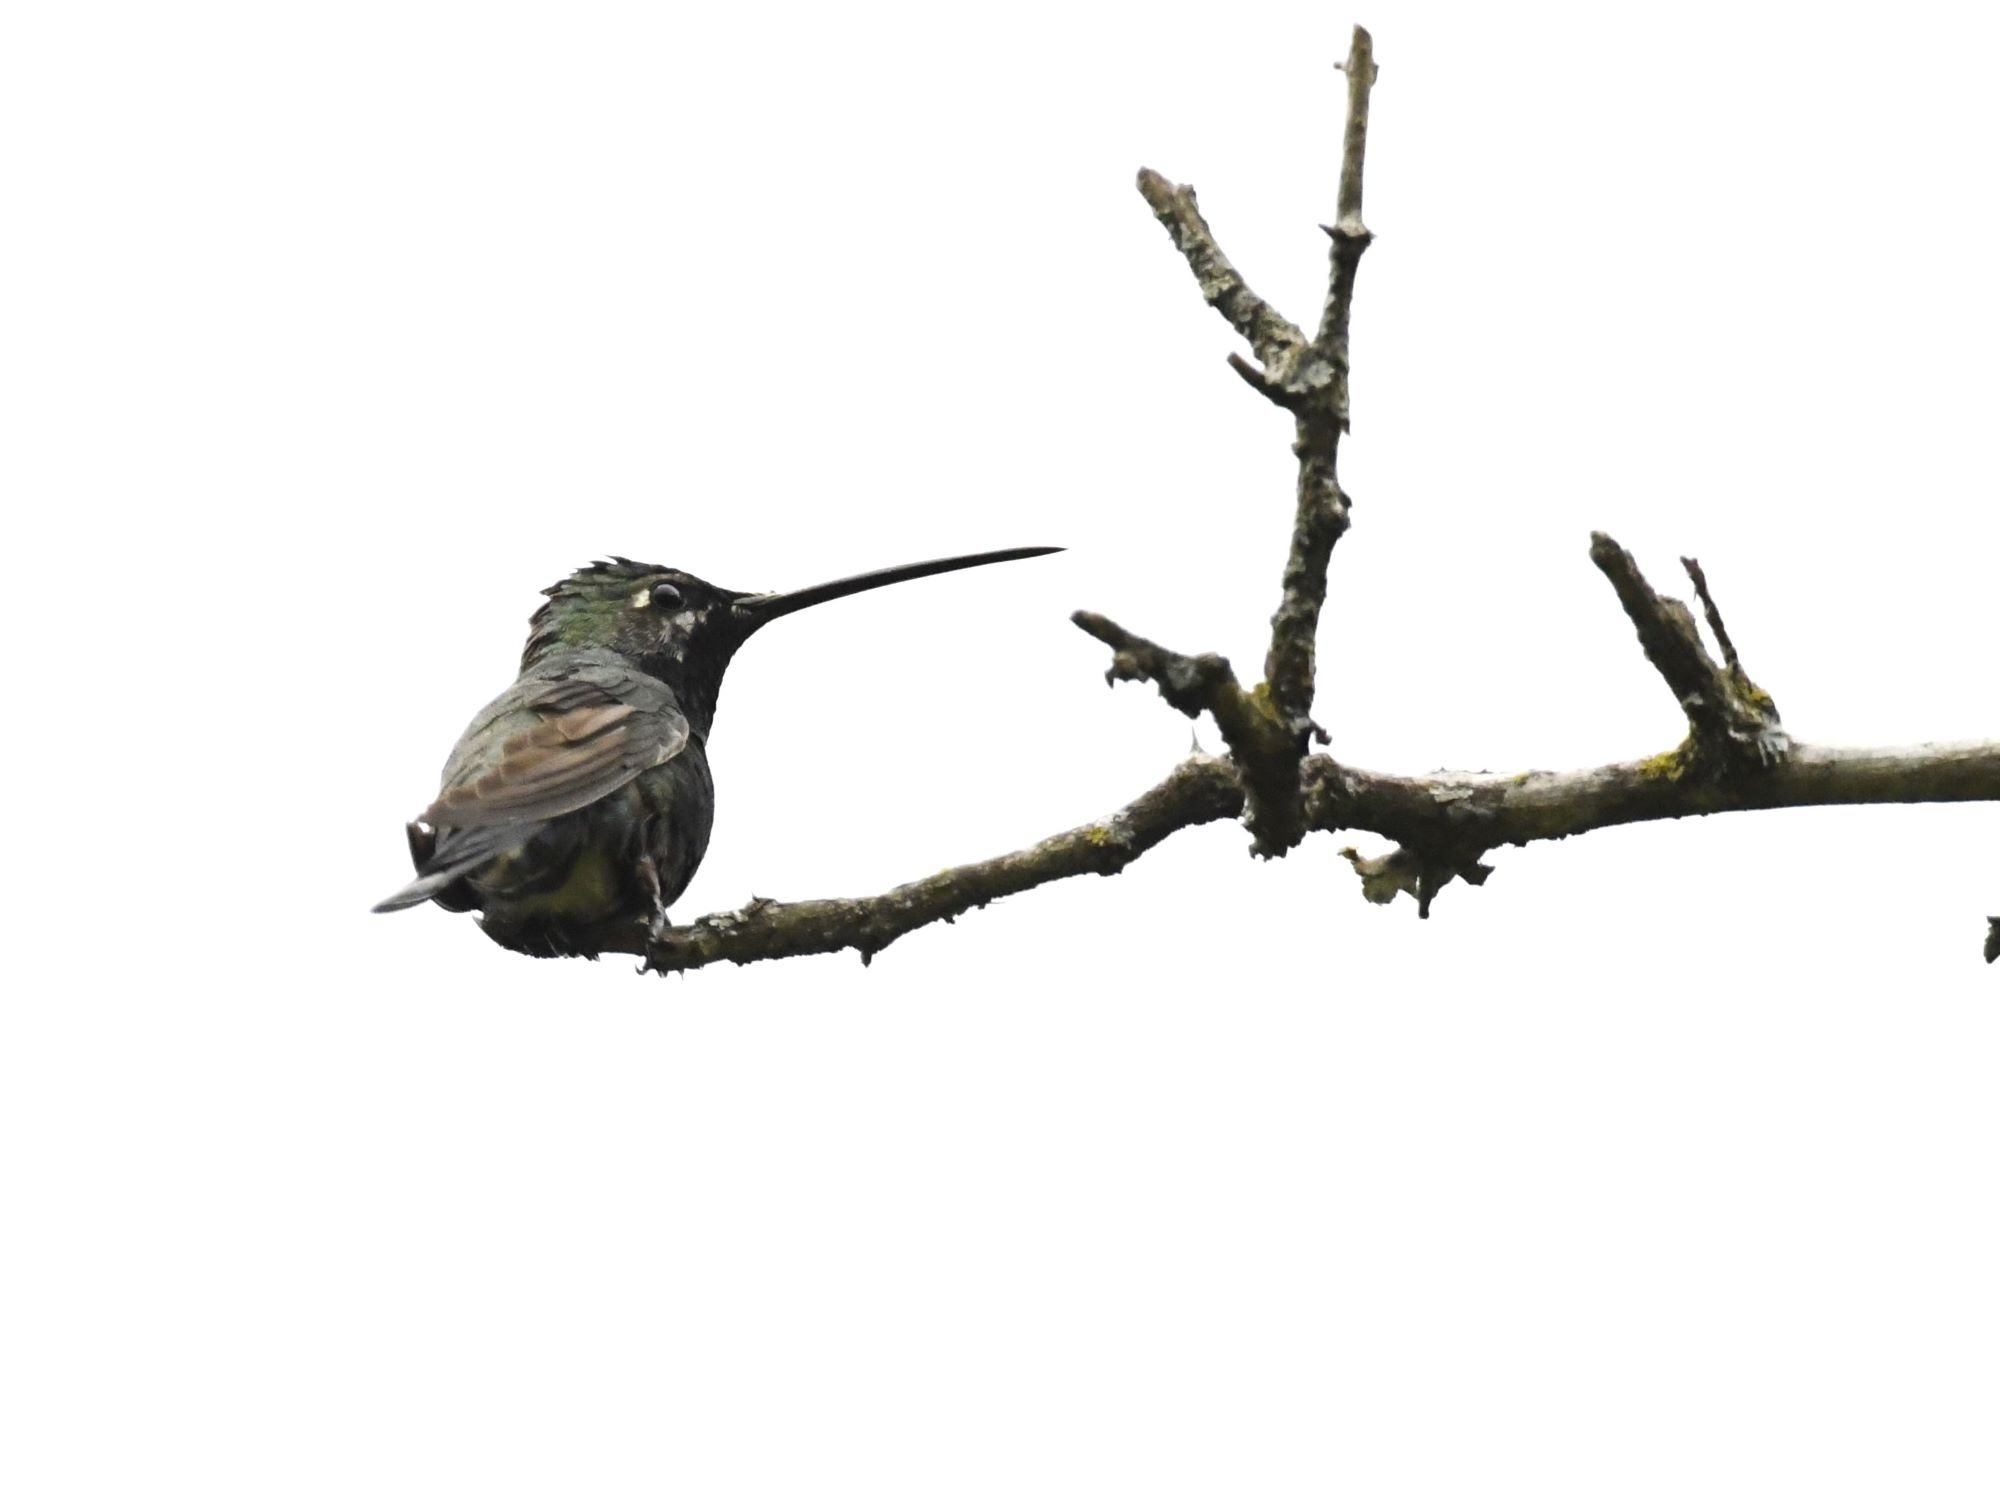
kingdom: Animalia
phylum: Chordata
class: Aves
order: Apodiformes
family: Trochilidae
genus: Heliomaster
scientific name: Heliomaster furcifer
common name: Blue-tufted starthroat
